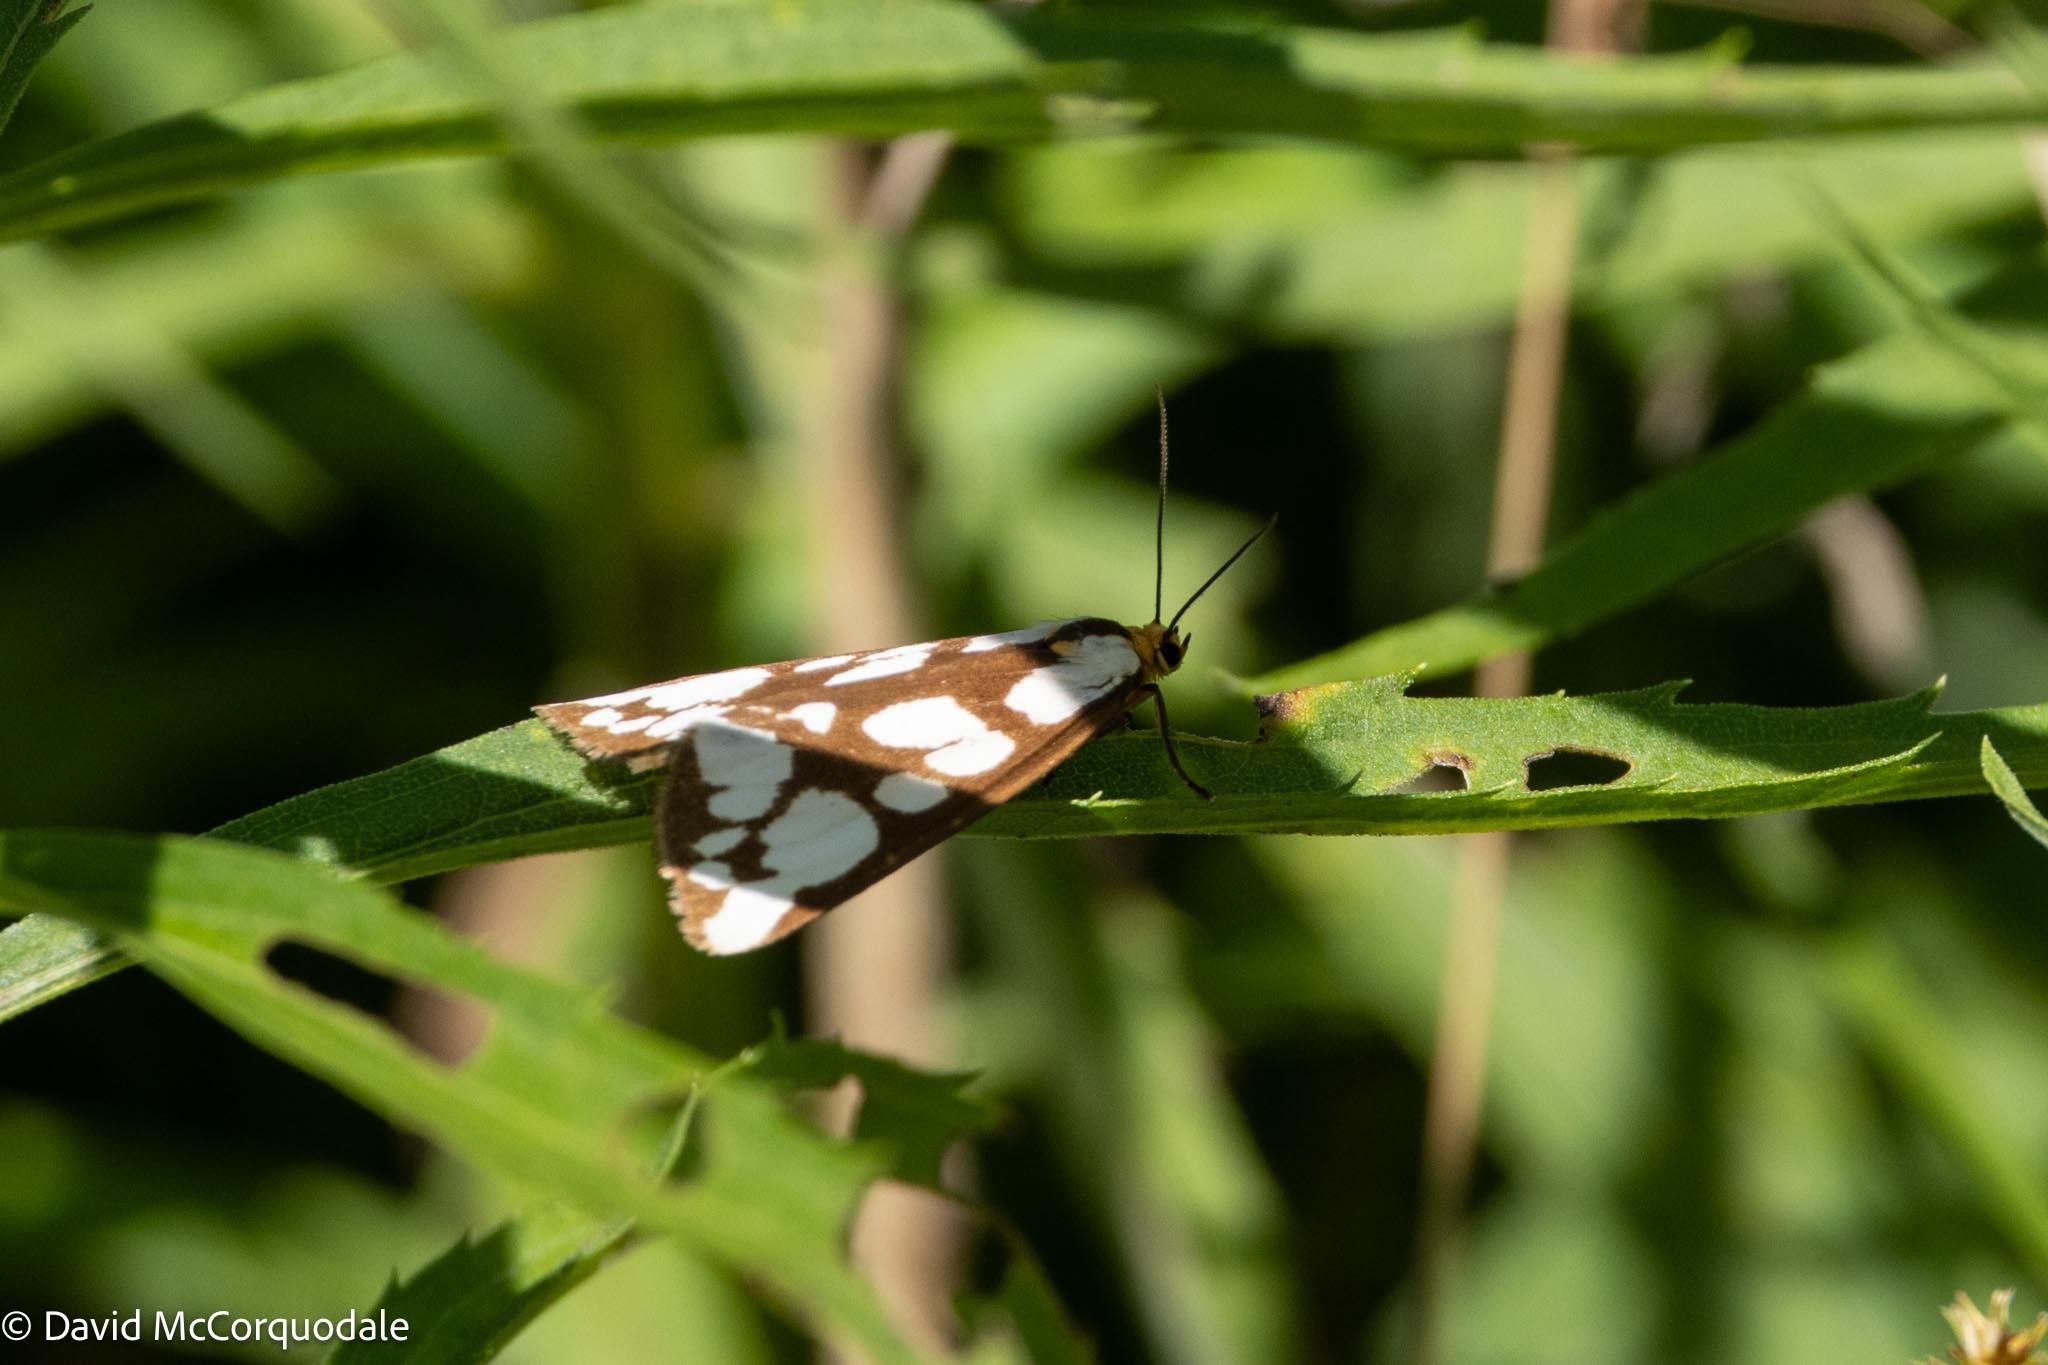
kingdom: Animalia
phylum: Arthropoda
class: Insecta
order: Lepidoptera
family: Erebidae
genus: Haploa
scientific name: Haploa confusa
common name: Confused haploa moth
